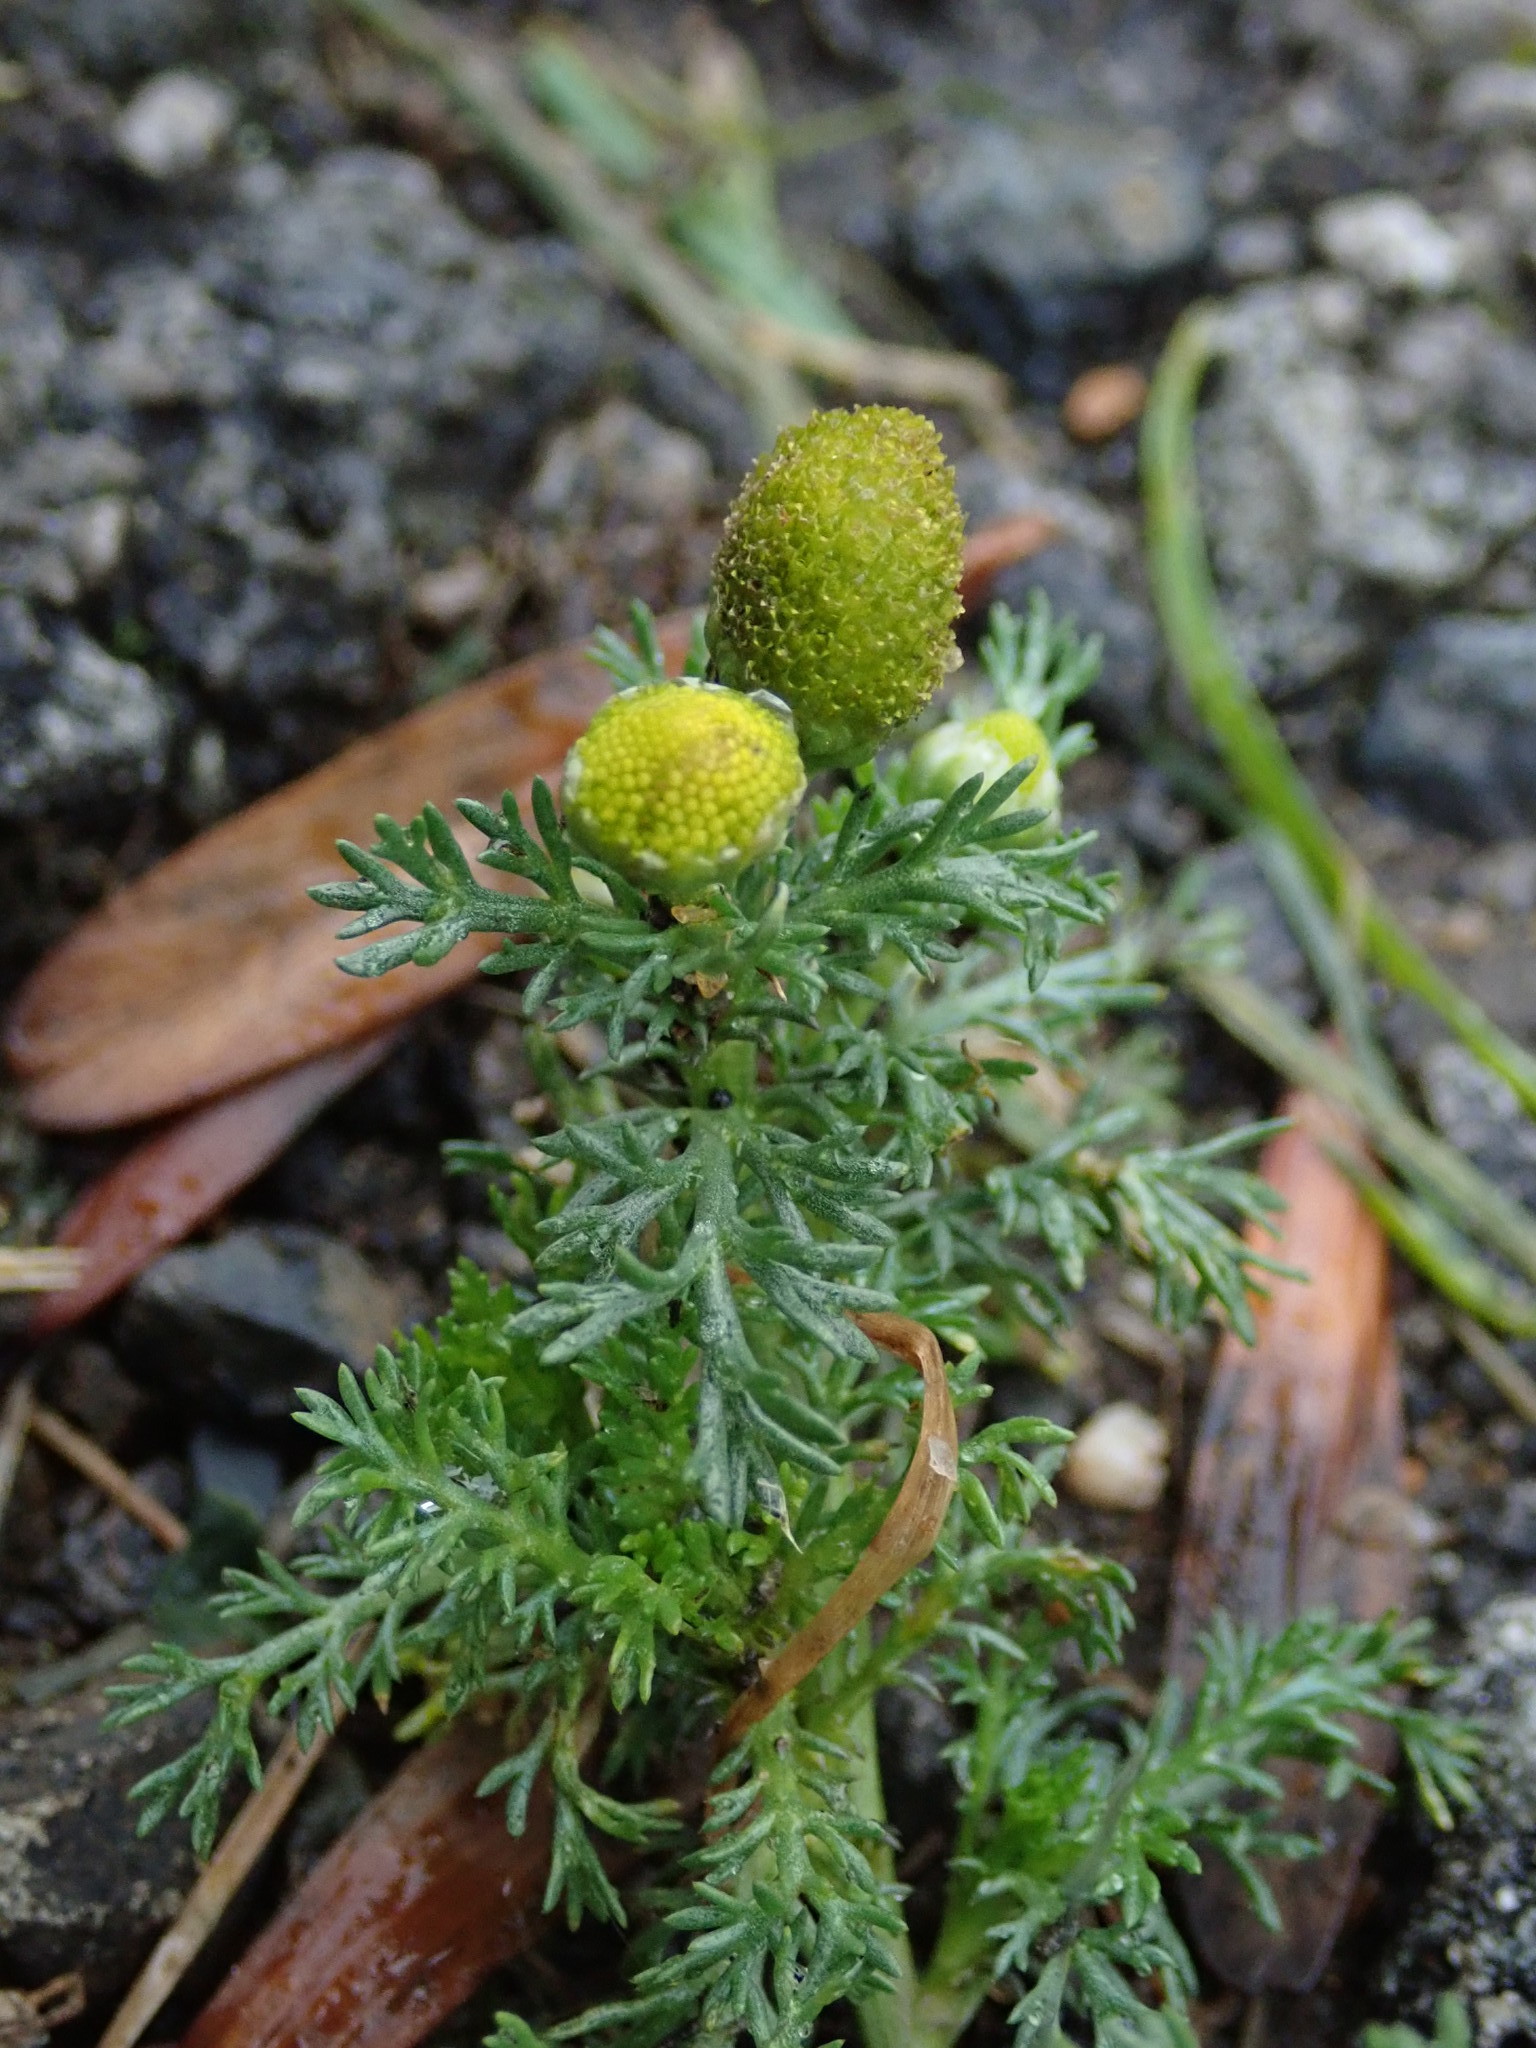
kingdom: Plantae
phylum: Tracheophyta
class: Magnoliopsida
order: Asterales
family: Asteraceae
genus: Matricaria
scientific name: Matricaria discoidea
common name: Disc mayweed
